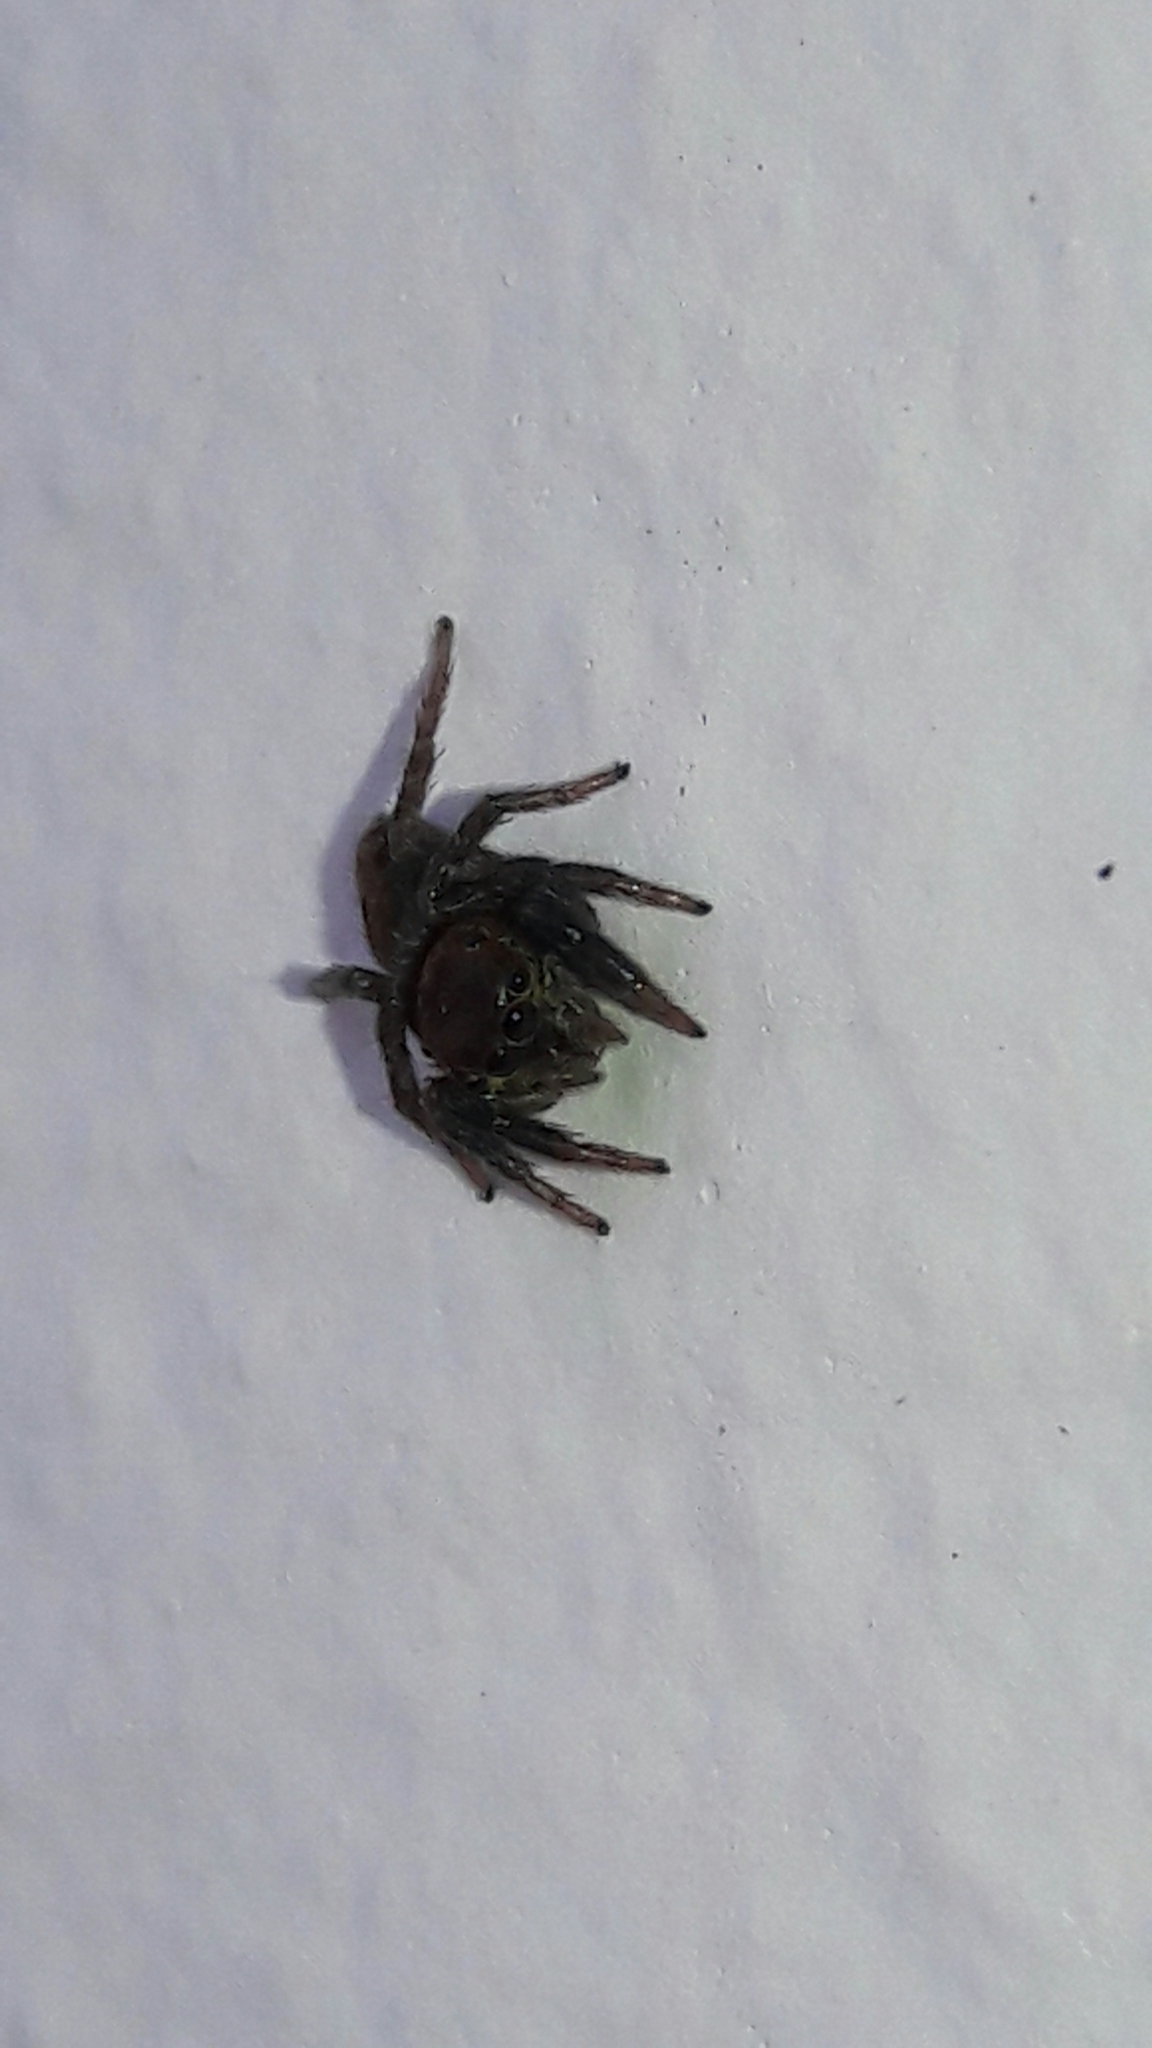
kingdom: Animalia
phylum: Arthropoda
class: Arachnida
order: Araneae
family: Salticidae
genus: Hasarius
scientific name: Hasarius adansoni
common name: Jumping spider
